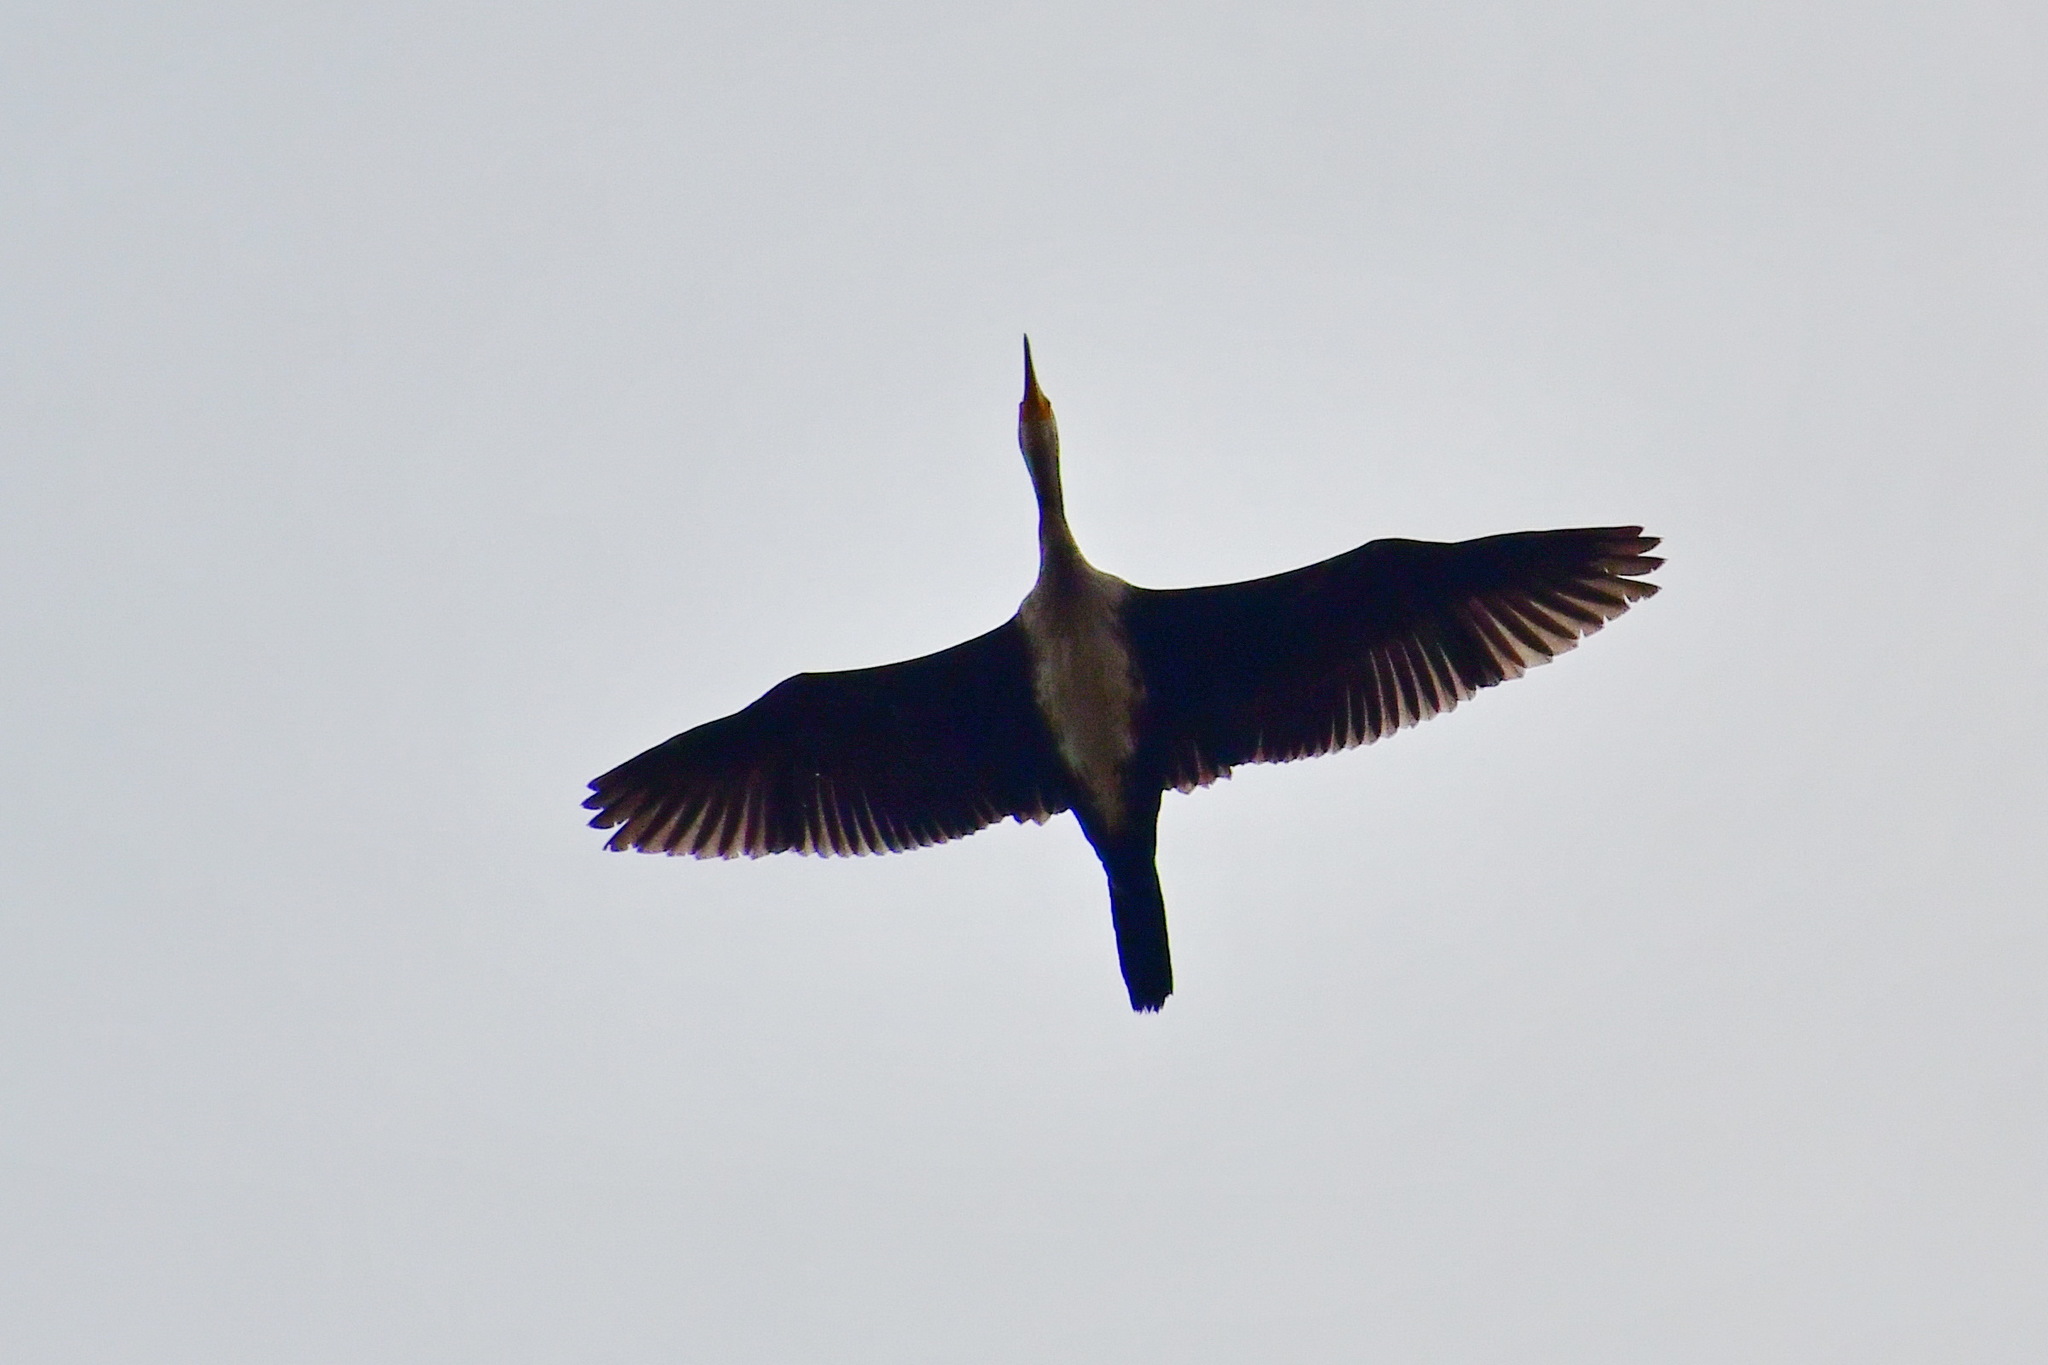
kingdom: Animalia
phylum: Chordata
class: Aves
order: Suliformes
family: Phalacrocoracidae
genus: Phalacrocorax
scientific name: Phalacrocorax carbo
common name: Great cormorant
